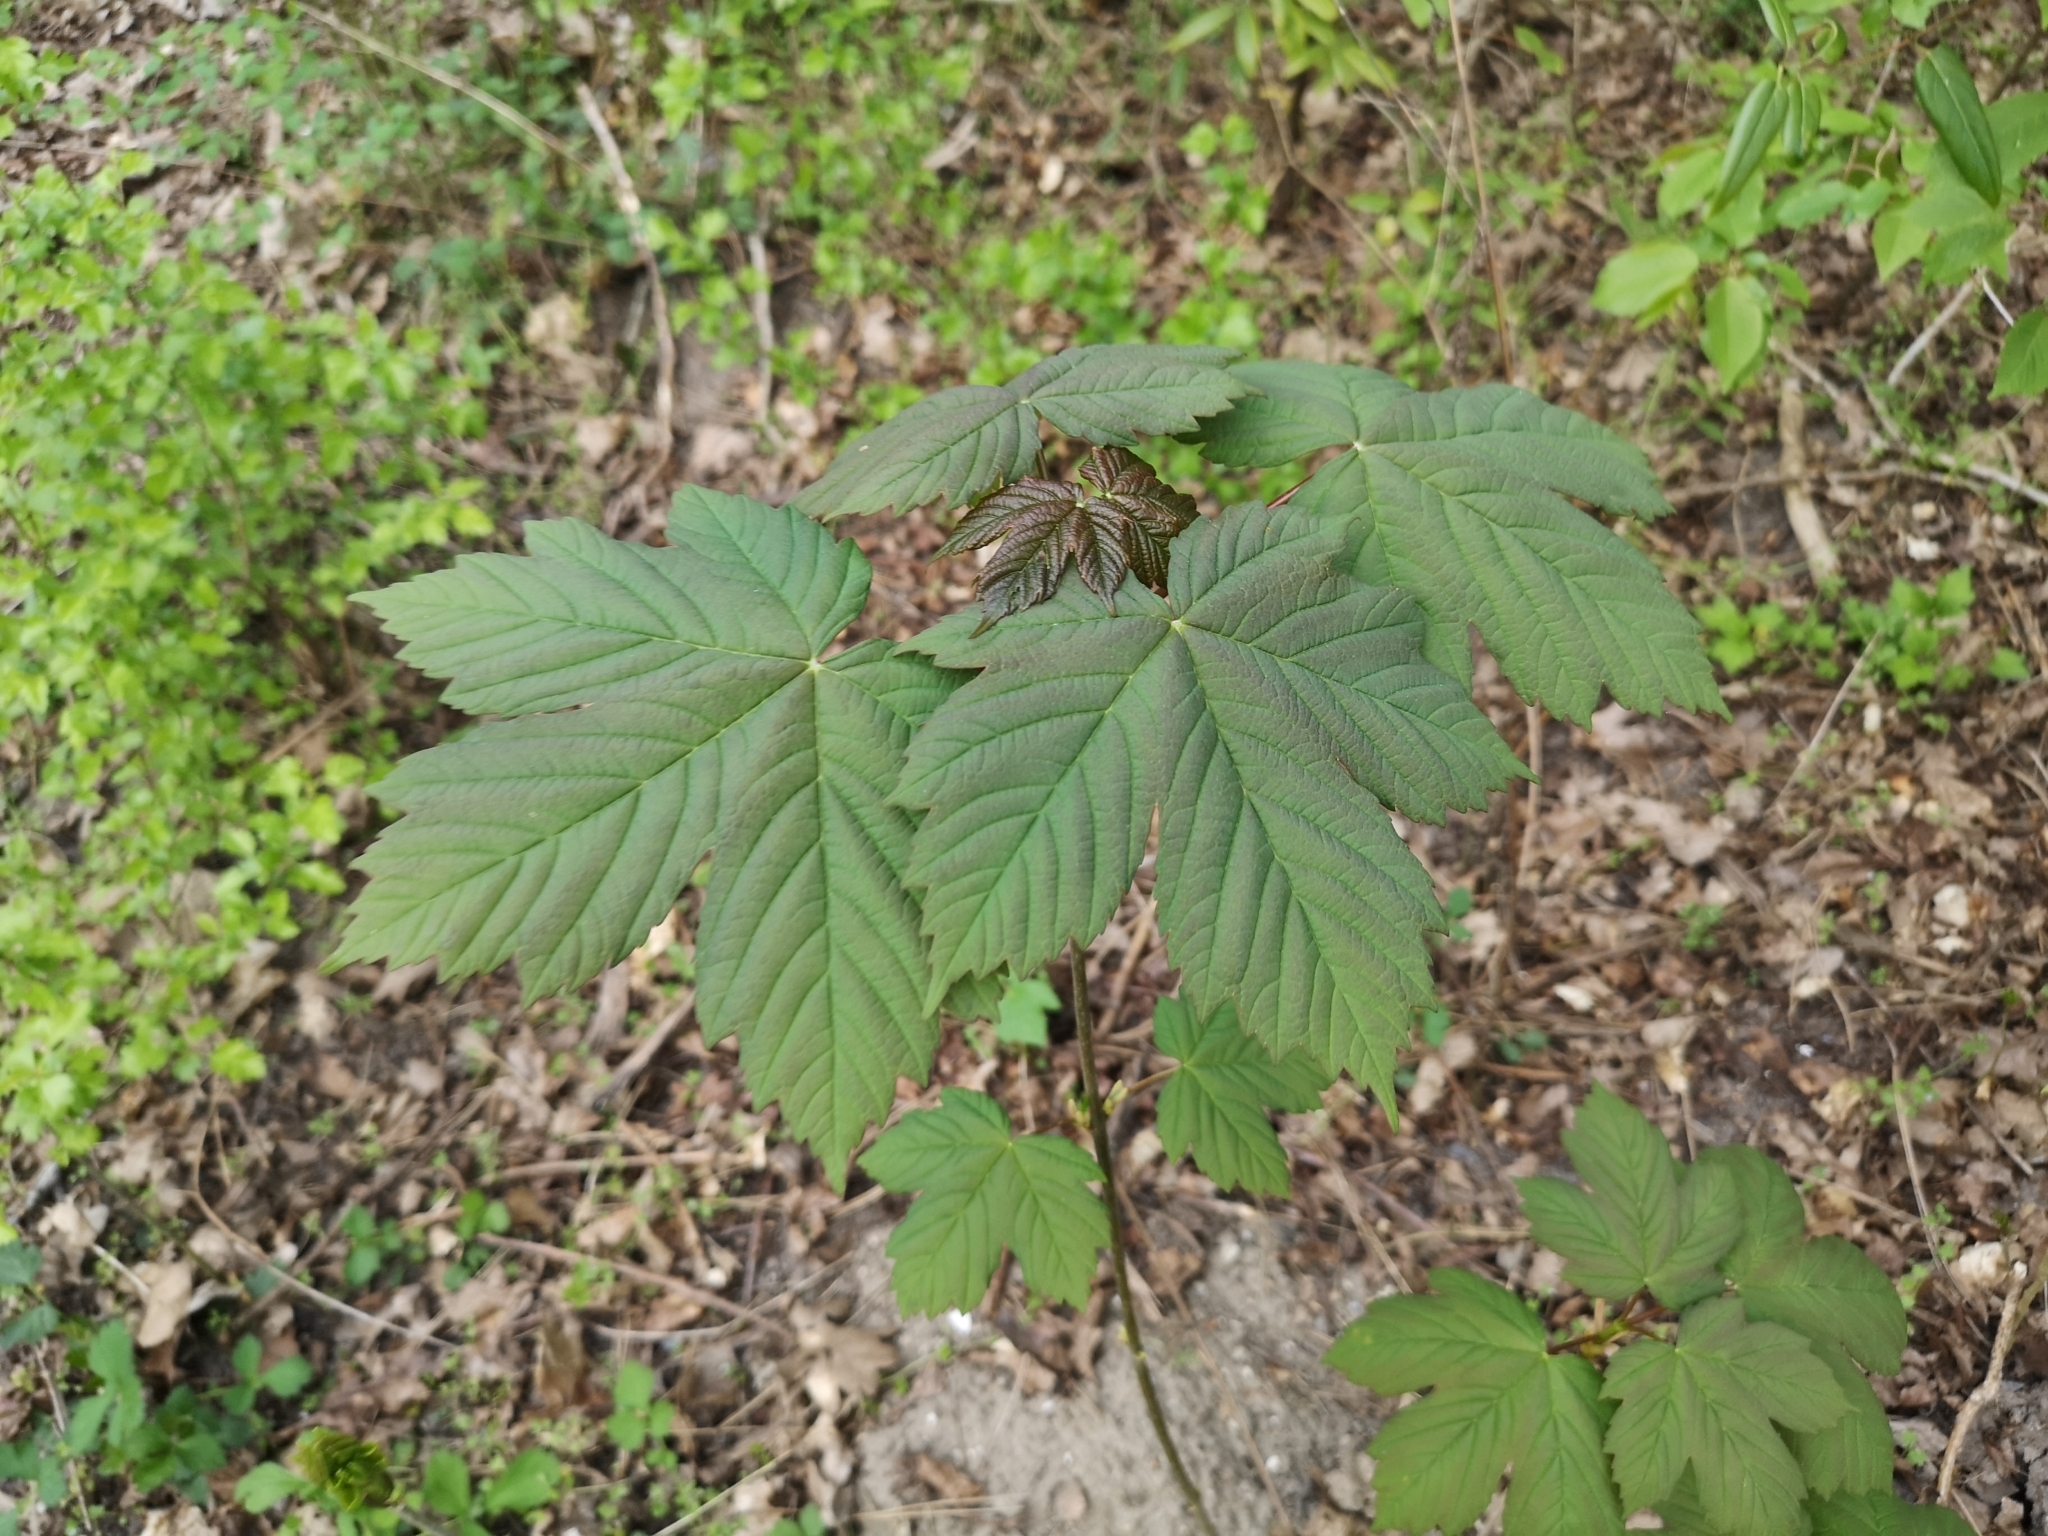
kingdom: Plantae
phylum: Tracheophyta
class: Magnoliopsida
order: Sapindales
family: Sapindaceae
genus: Acer
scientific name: Acer pseudoplatanus
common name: Sycamore
